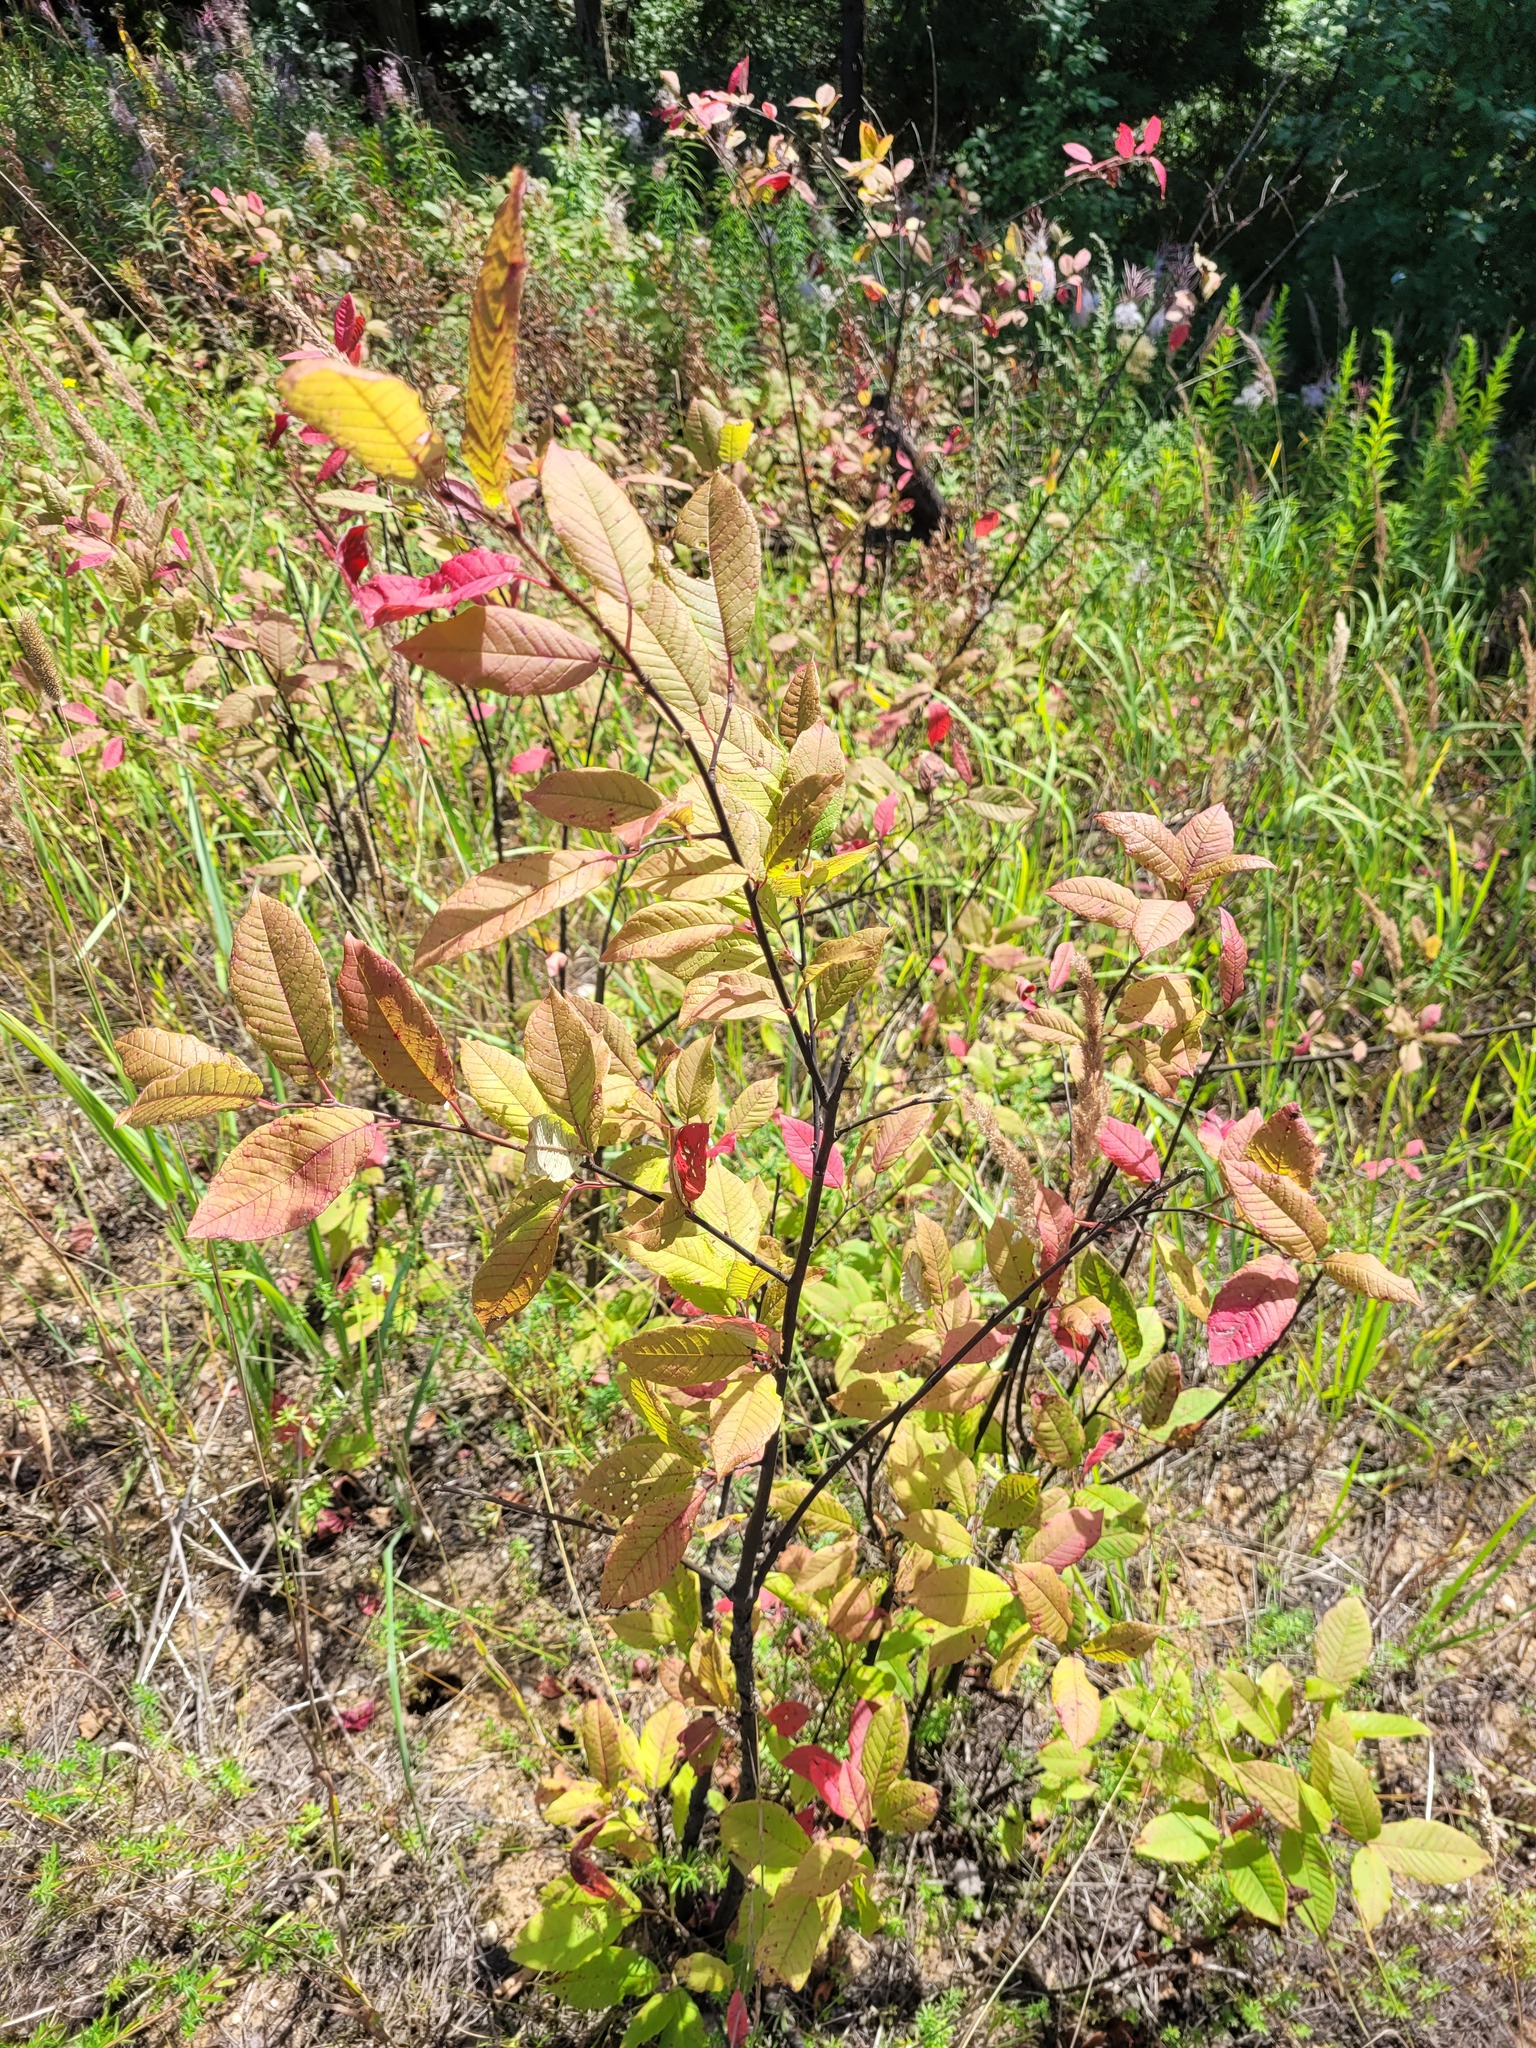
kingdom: Plantae
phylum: Tracheophyta
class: Magnoliopsida
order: Rosales
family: Rosaceae
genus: Prunus
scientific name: Prunus padus
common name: Bird cherry
